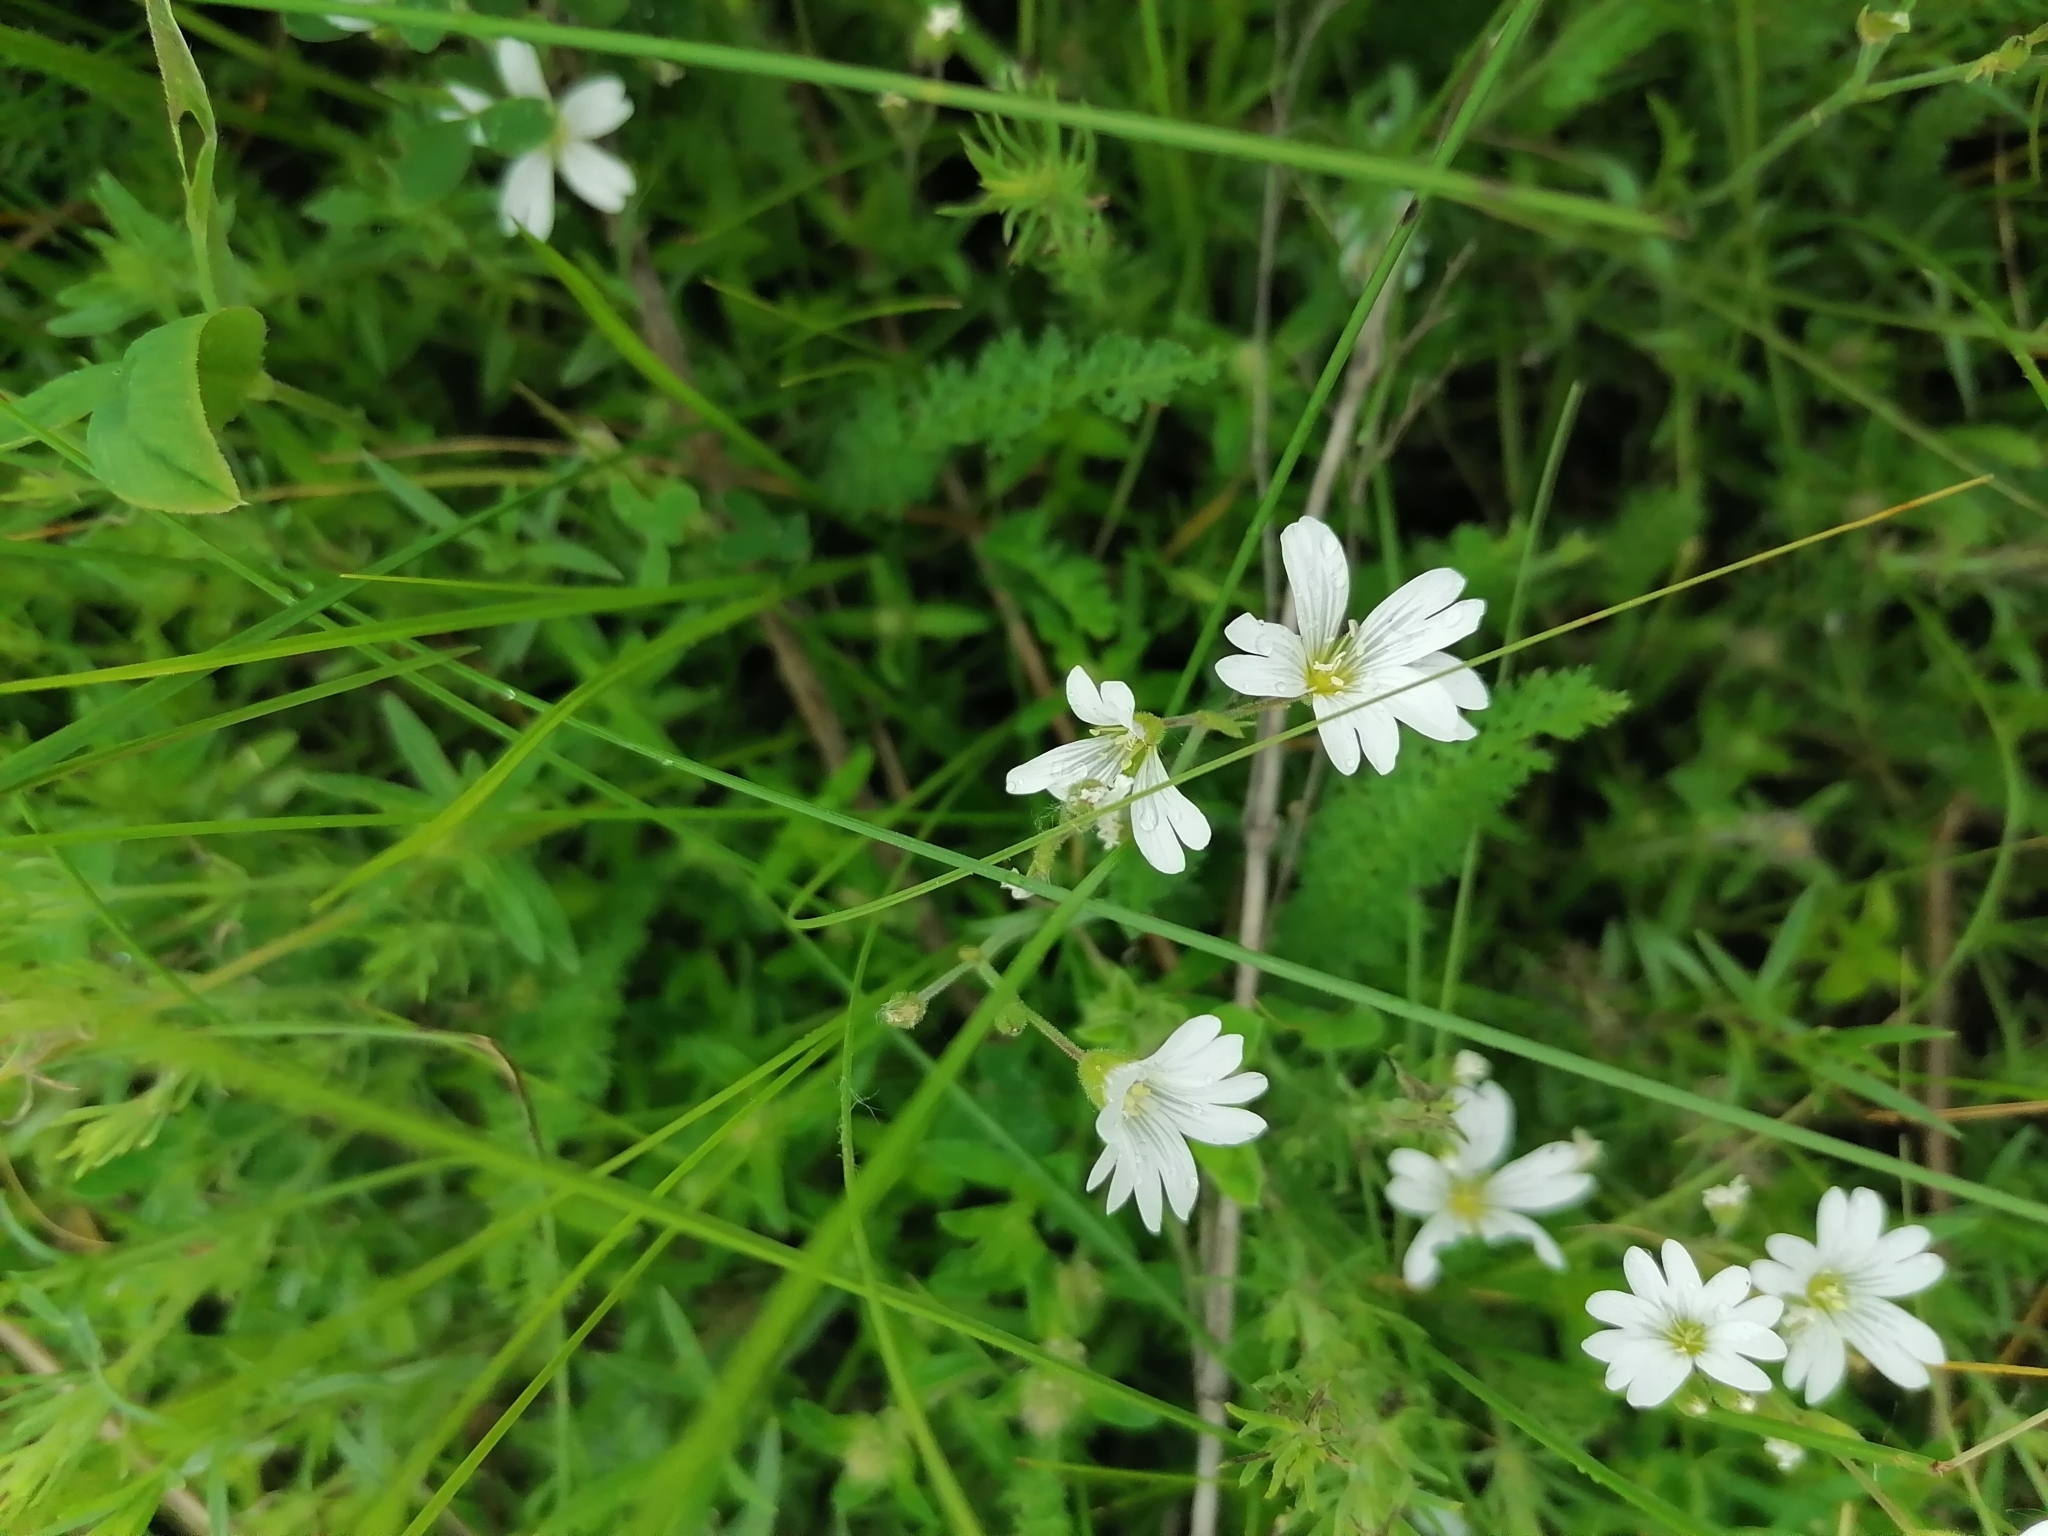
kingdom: Plantae
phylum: Tracheophyta
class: Magnoliopsida
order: Caryophyllales
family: Caryophyllaceae
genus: Cerastium
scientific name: Cerastium arvense
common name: Field mouse-ear
